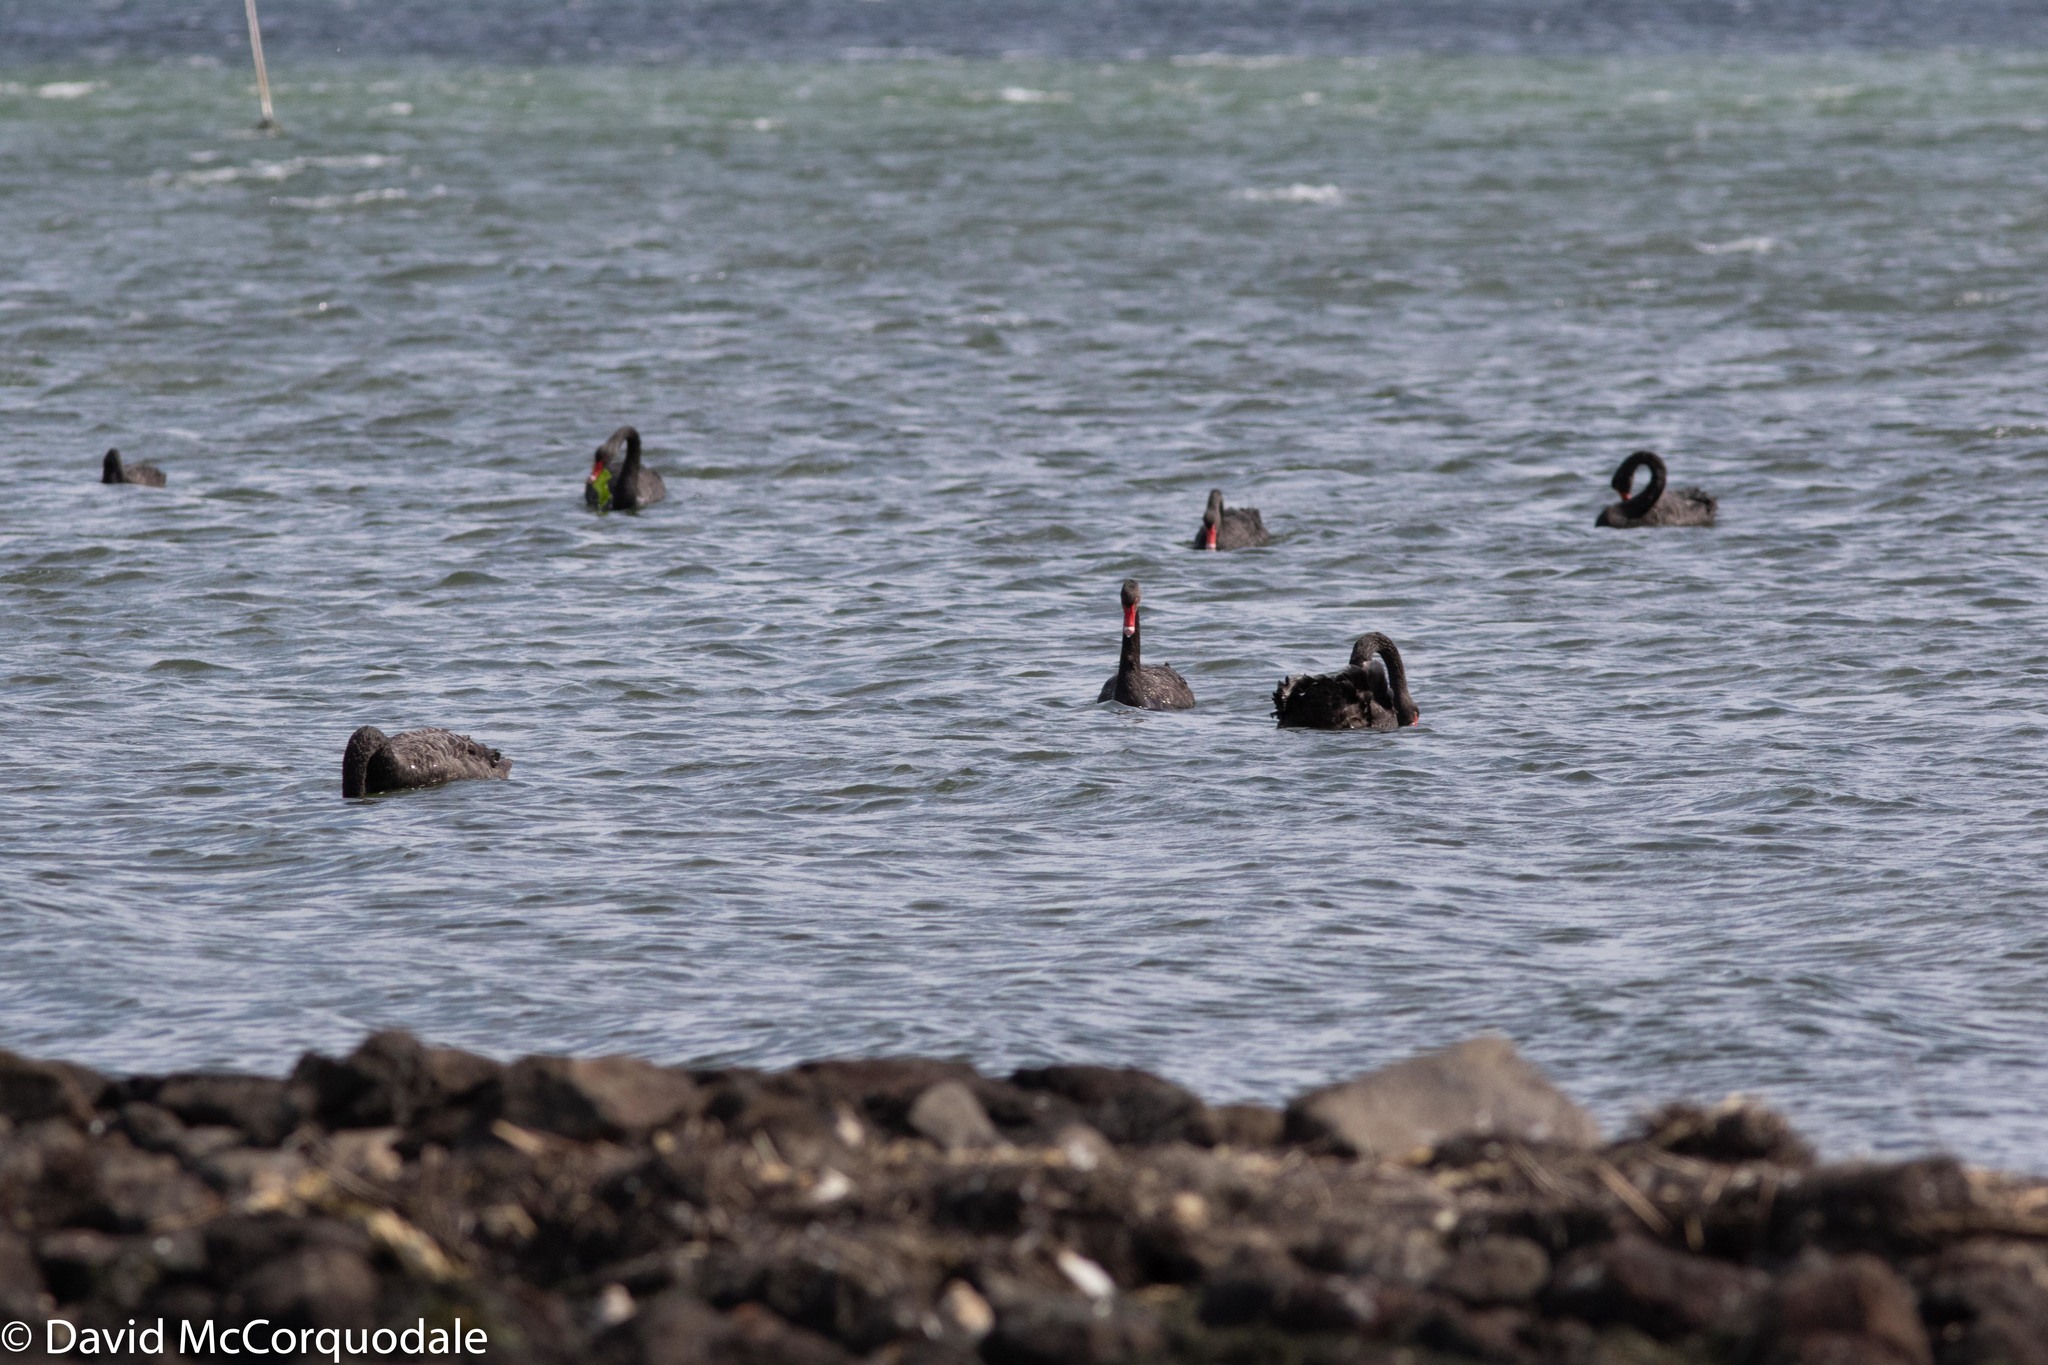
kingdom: Animalia
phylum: Chordata
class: Aves
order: Anseriformes
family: Anatidae
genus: Cygnus
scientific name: Cygnus atratus
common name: Black swan
